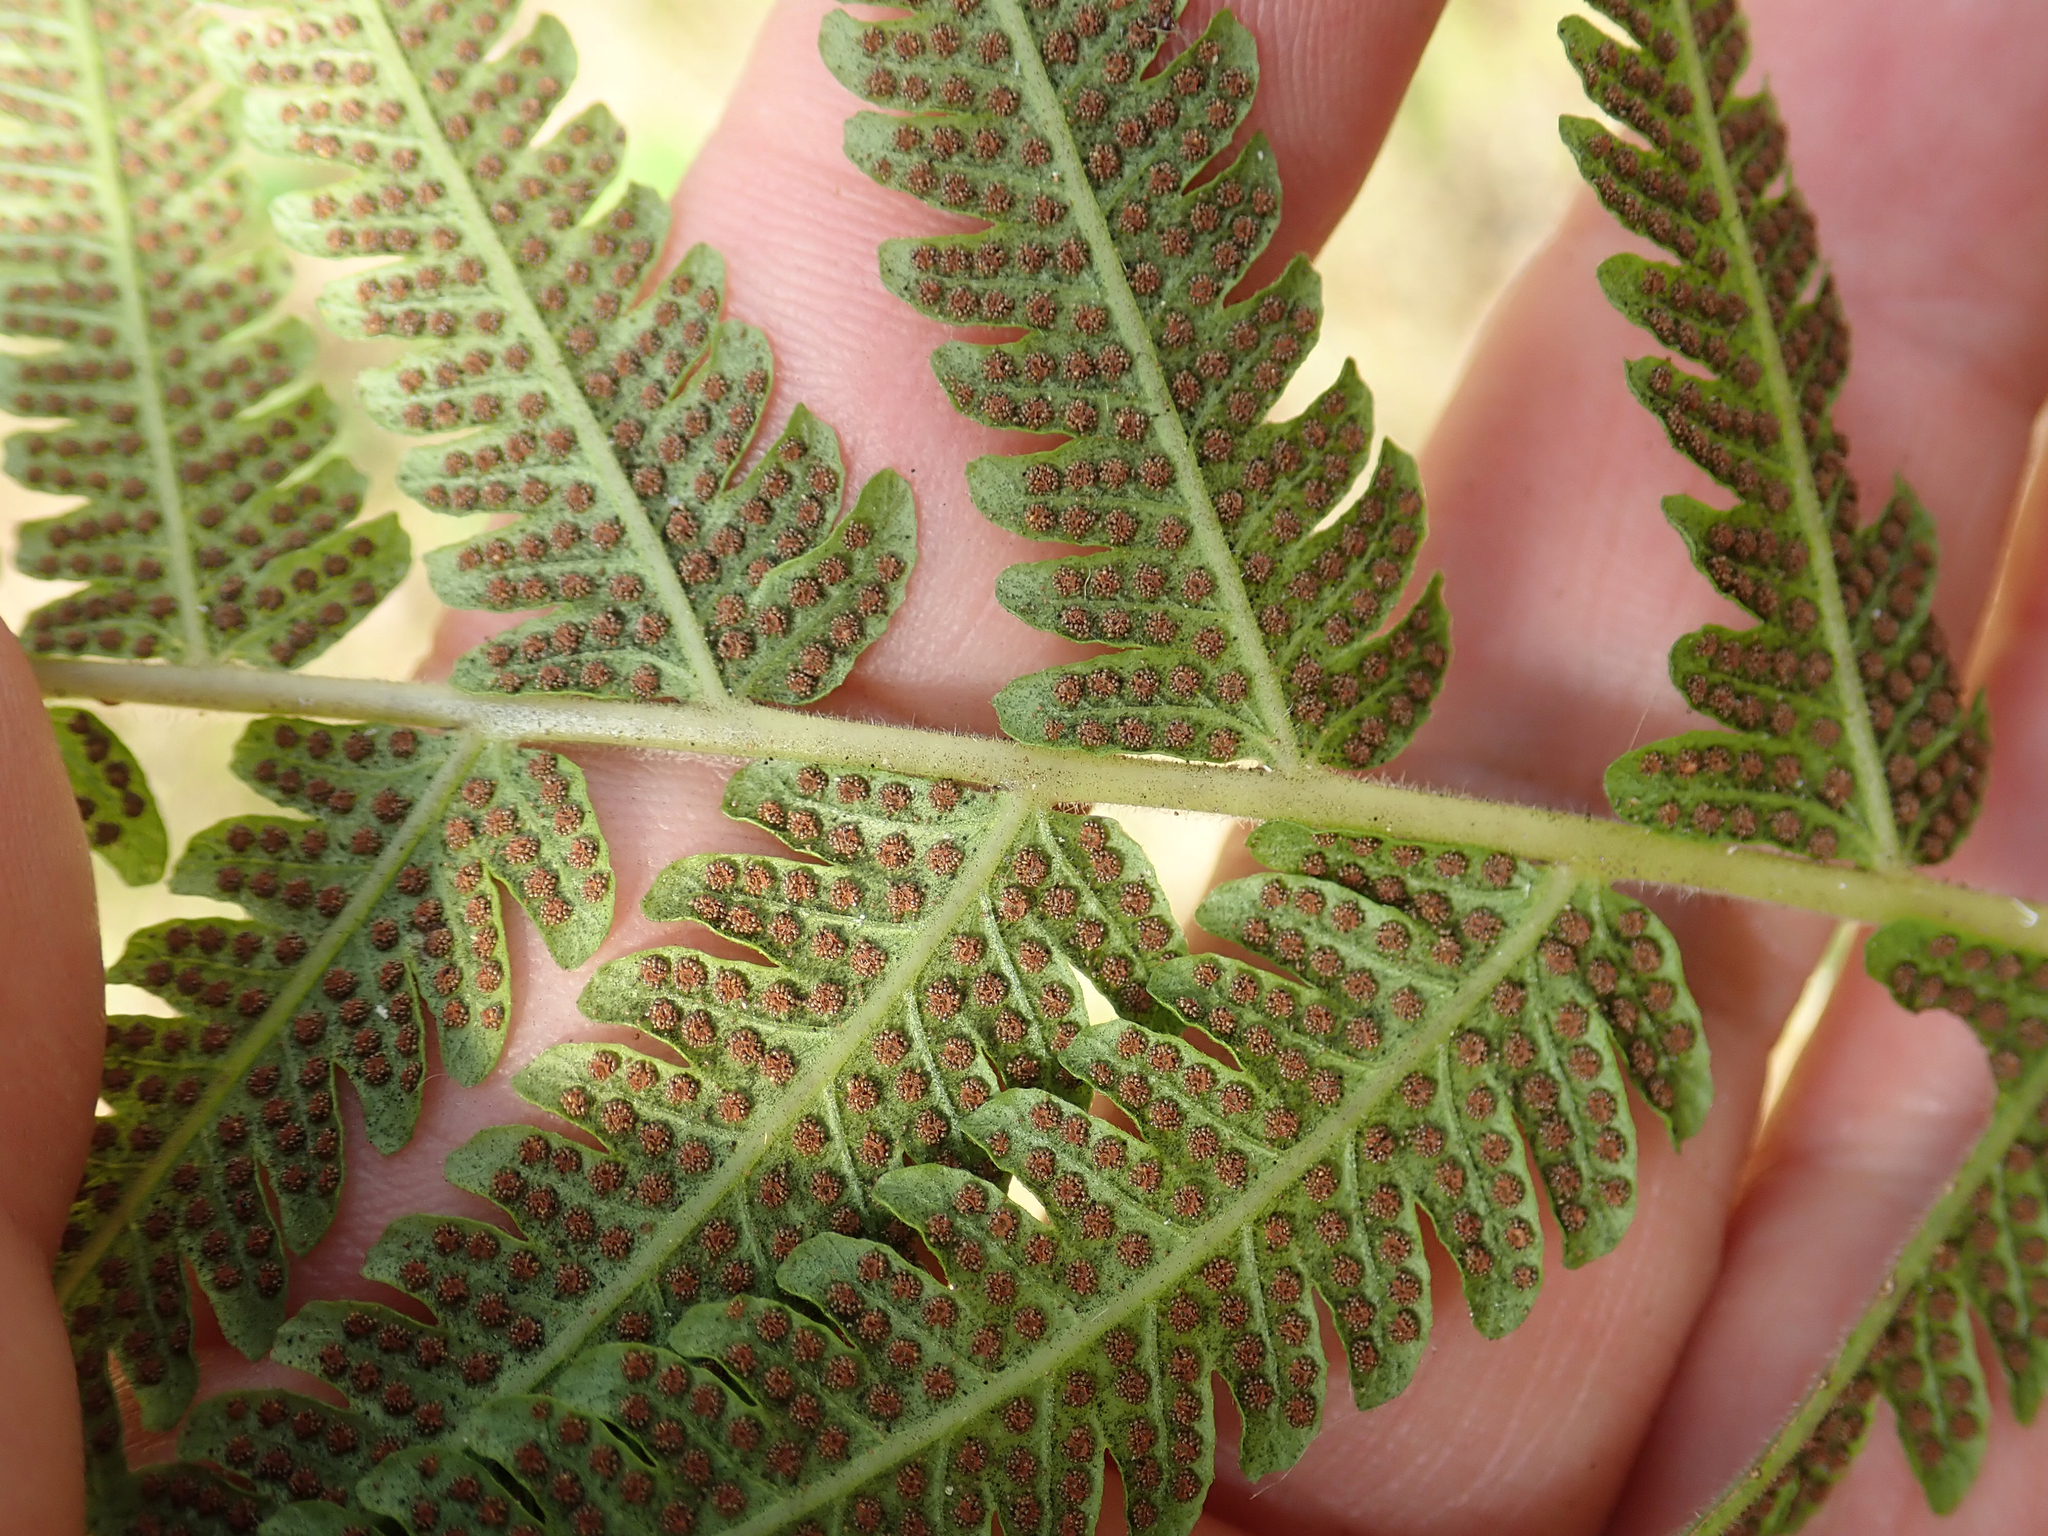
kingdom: Plantae
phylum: Tracheophyta
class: Polypodiopsida
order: Polypodiales
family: Thelypteridaceae
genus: Christella
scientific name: Christella dentata
